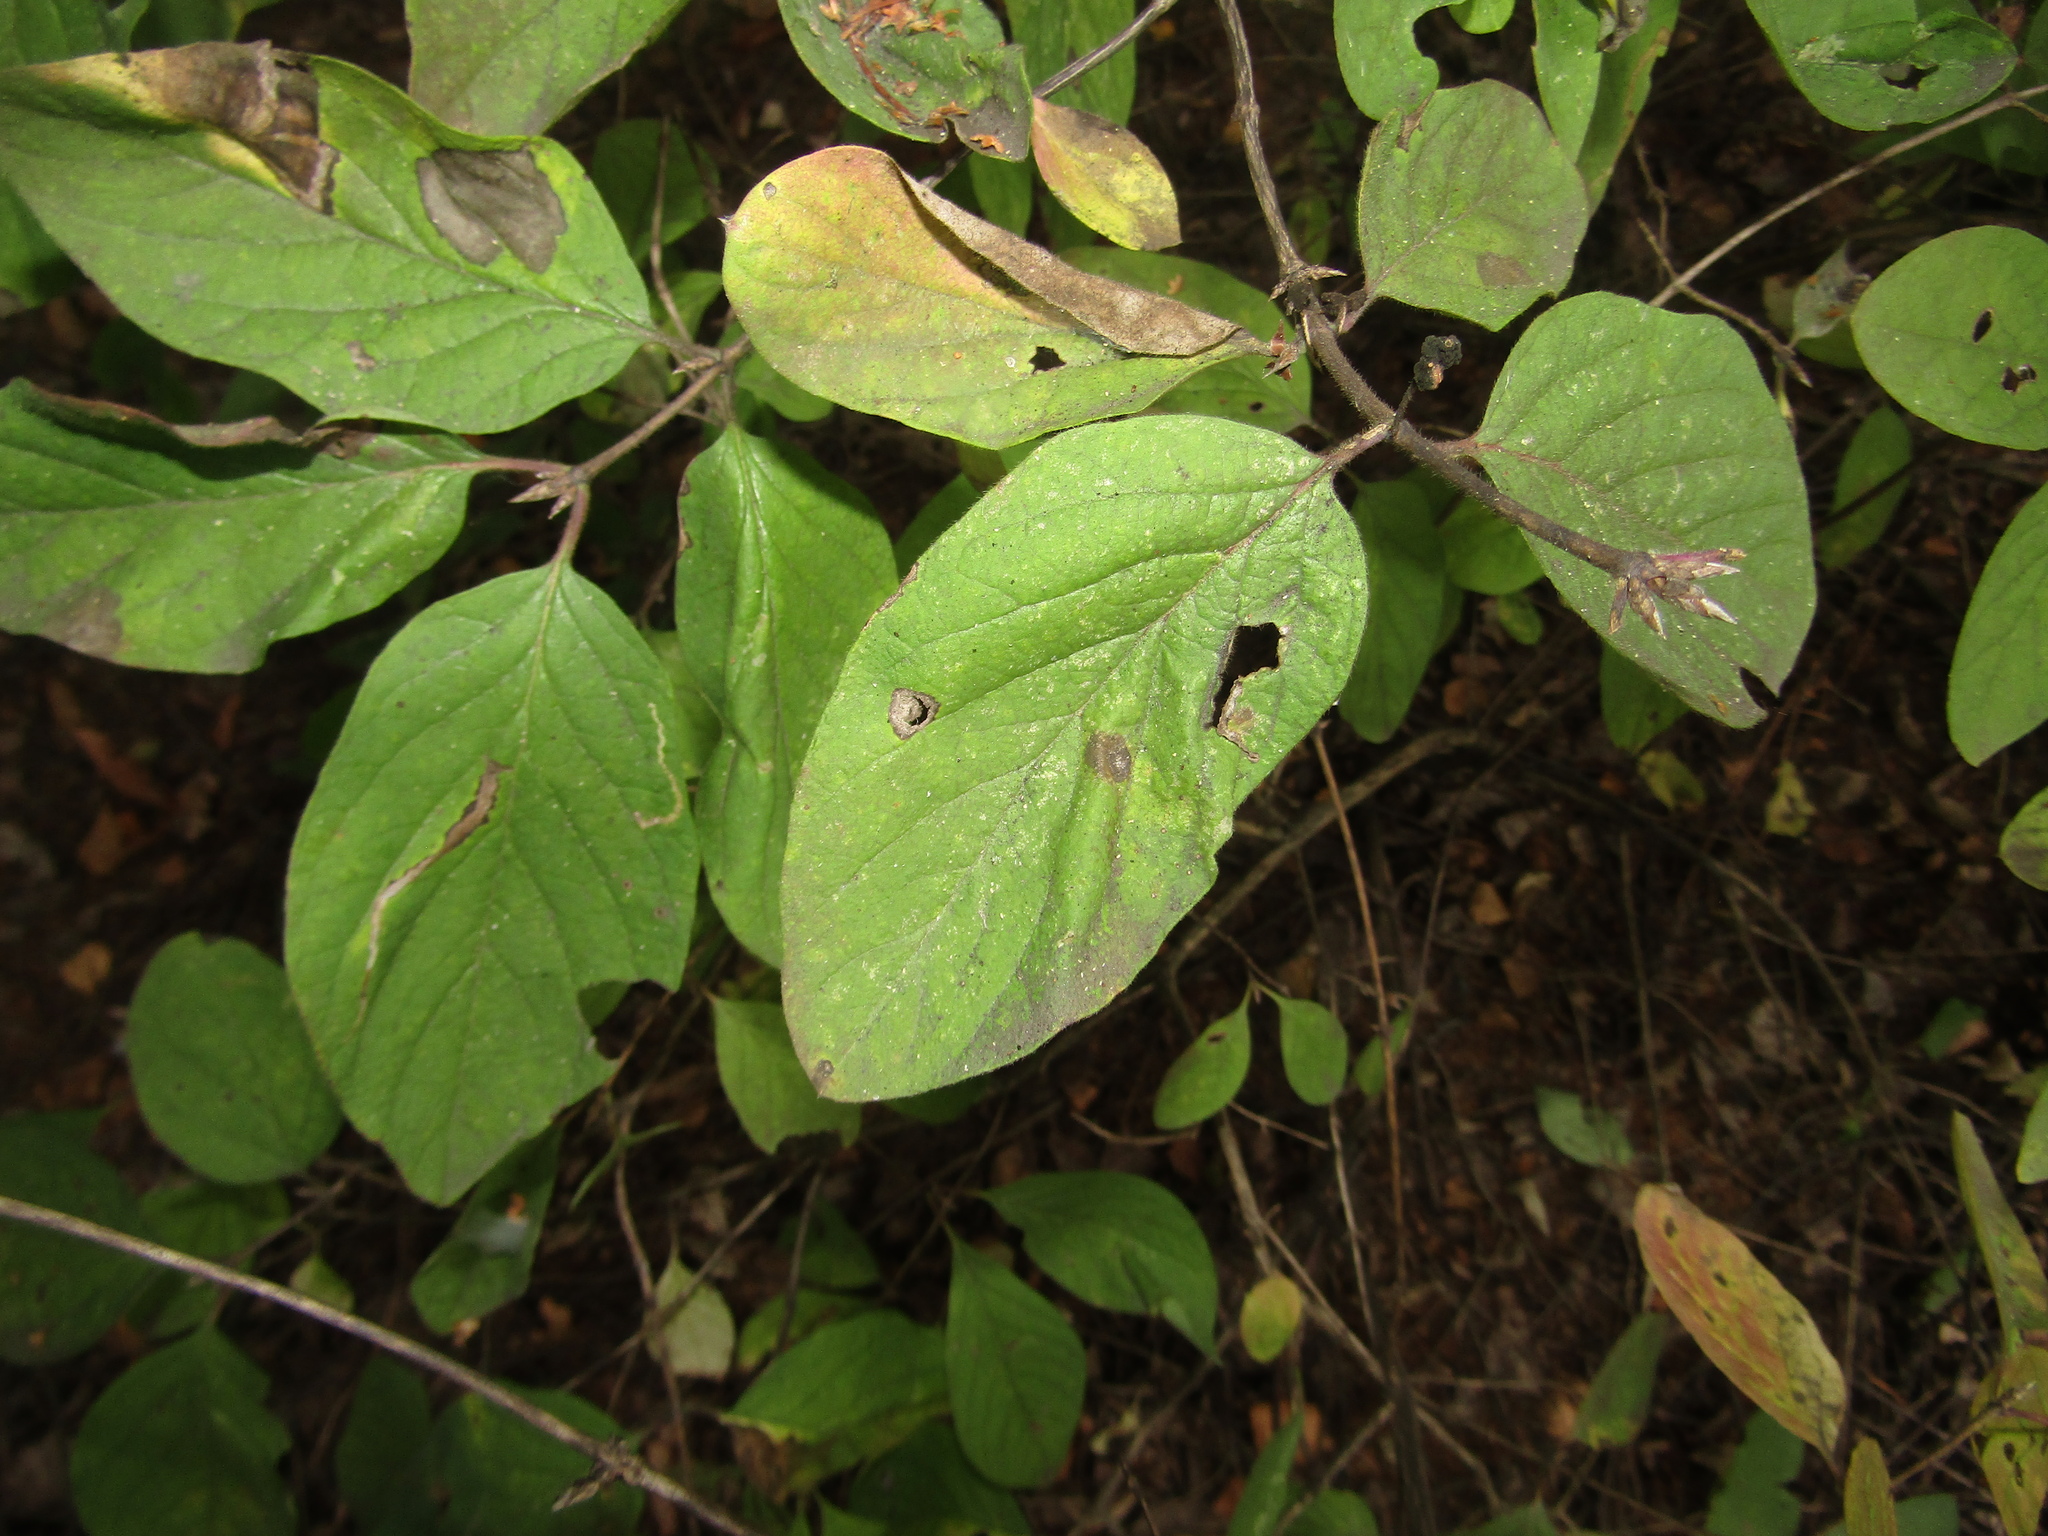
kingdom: Plantae
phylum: Tracheophyta
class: Magnoliopsida
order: Dipsacales
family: Caprifoliaceae
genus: Lonicera
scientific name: Lonicera xylosteum
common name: Fly honeysuckle
